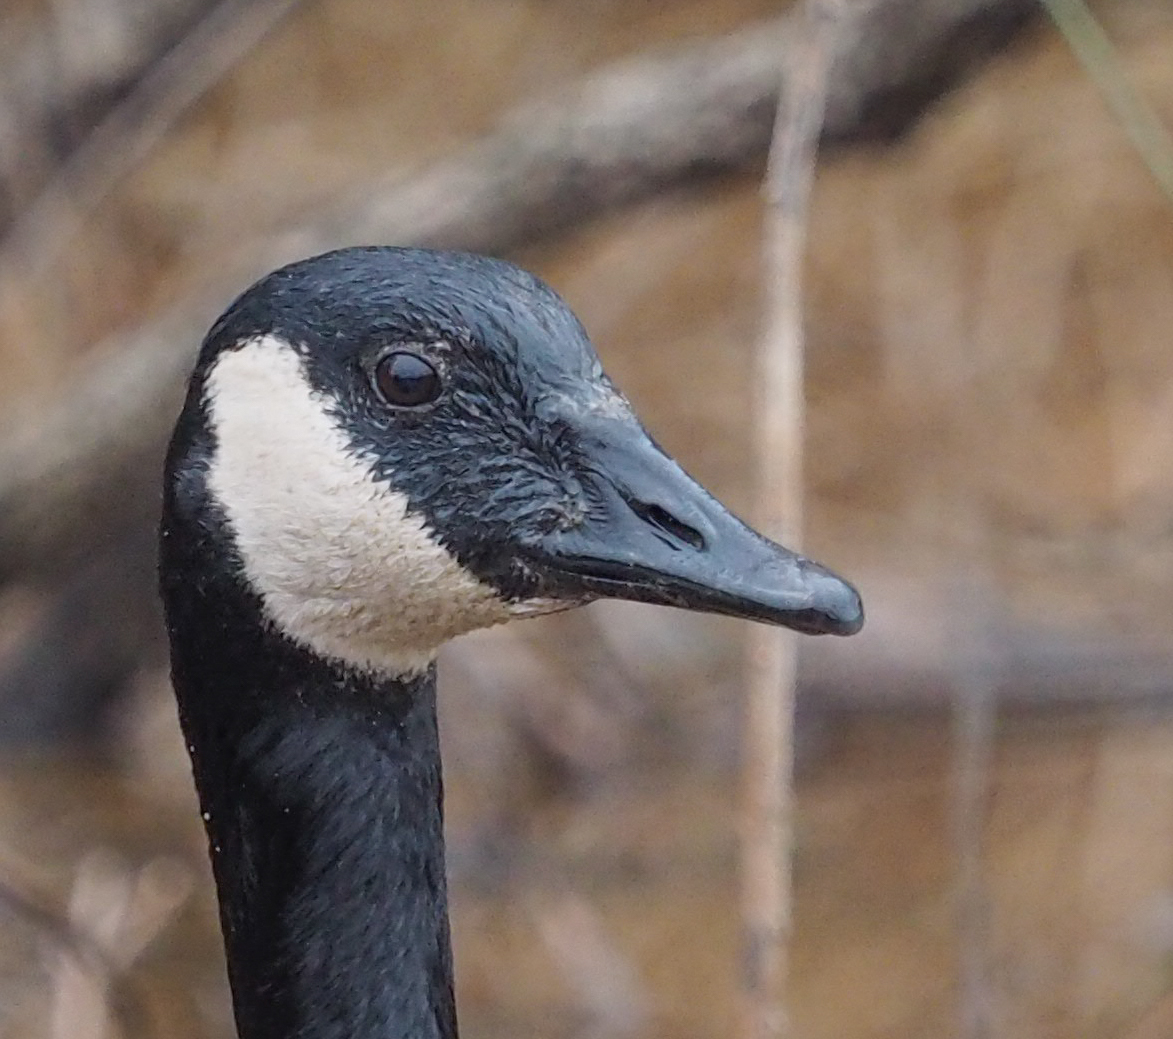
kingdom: Animalia
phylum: Chordata
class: Aves
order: Anseriformes
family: Anatidae
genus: Branta
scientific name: Branta canadensis
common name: Canada goose
